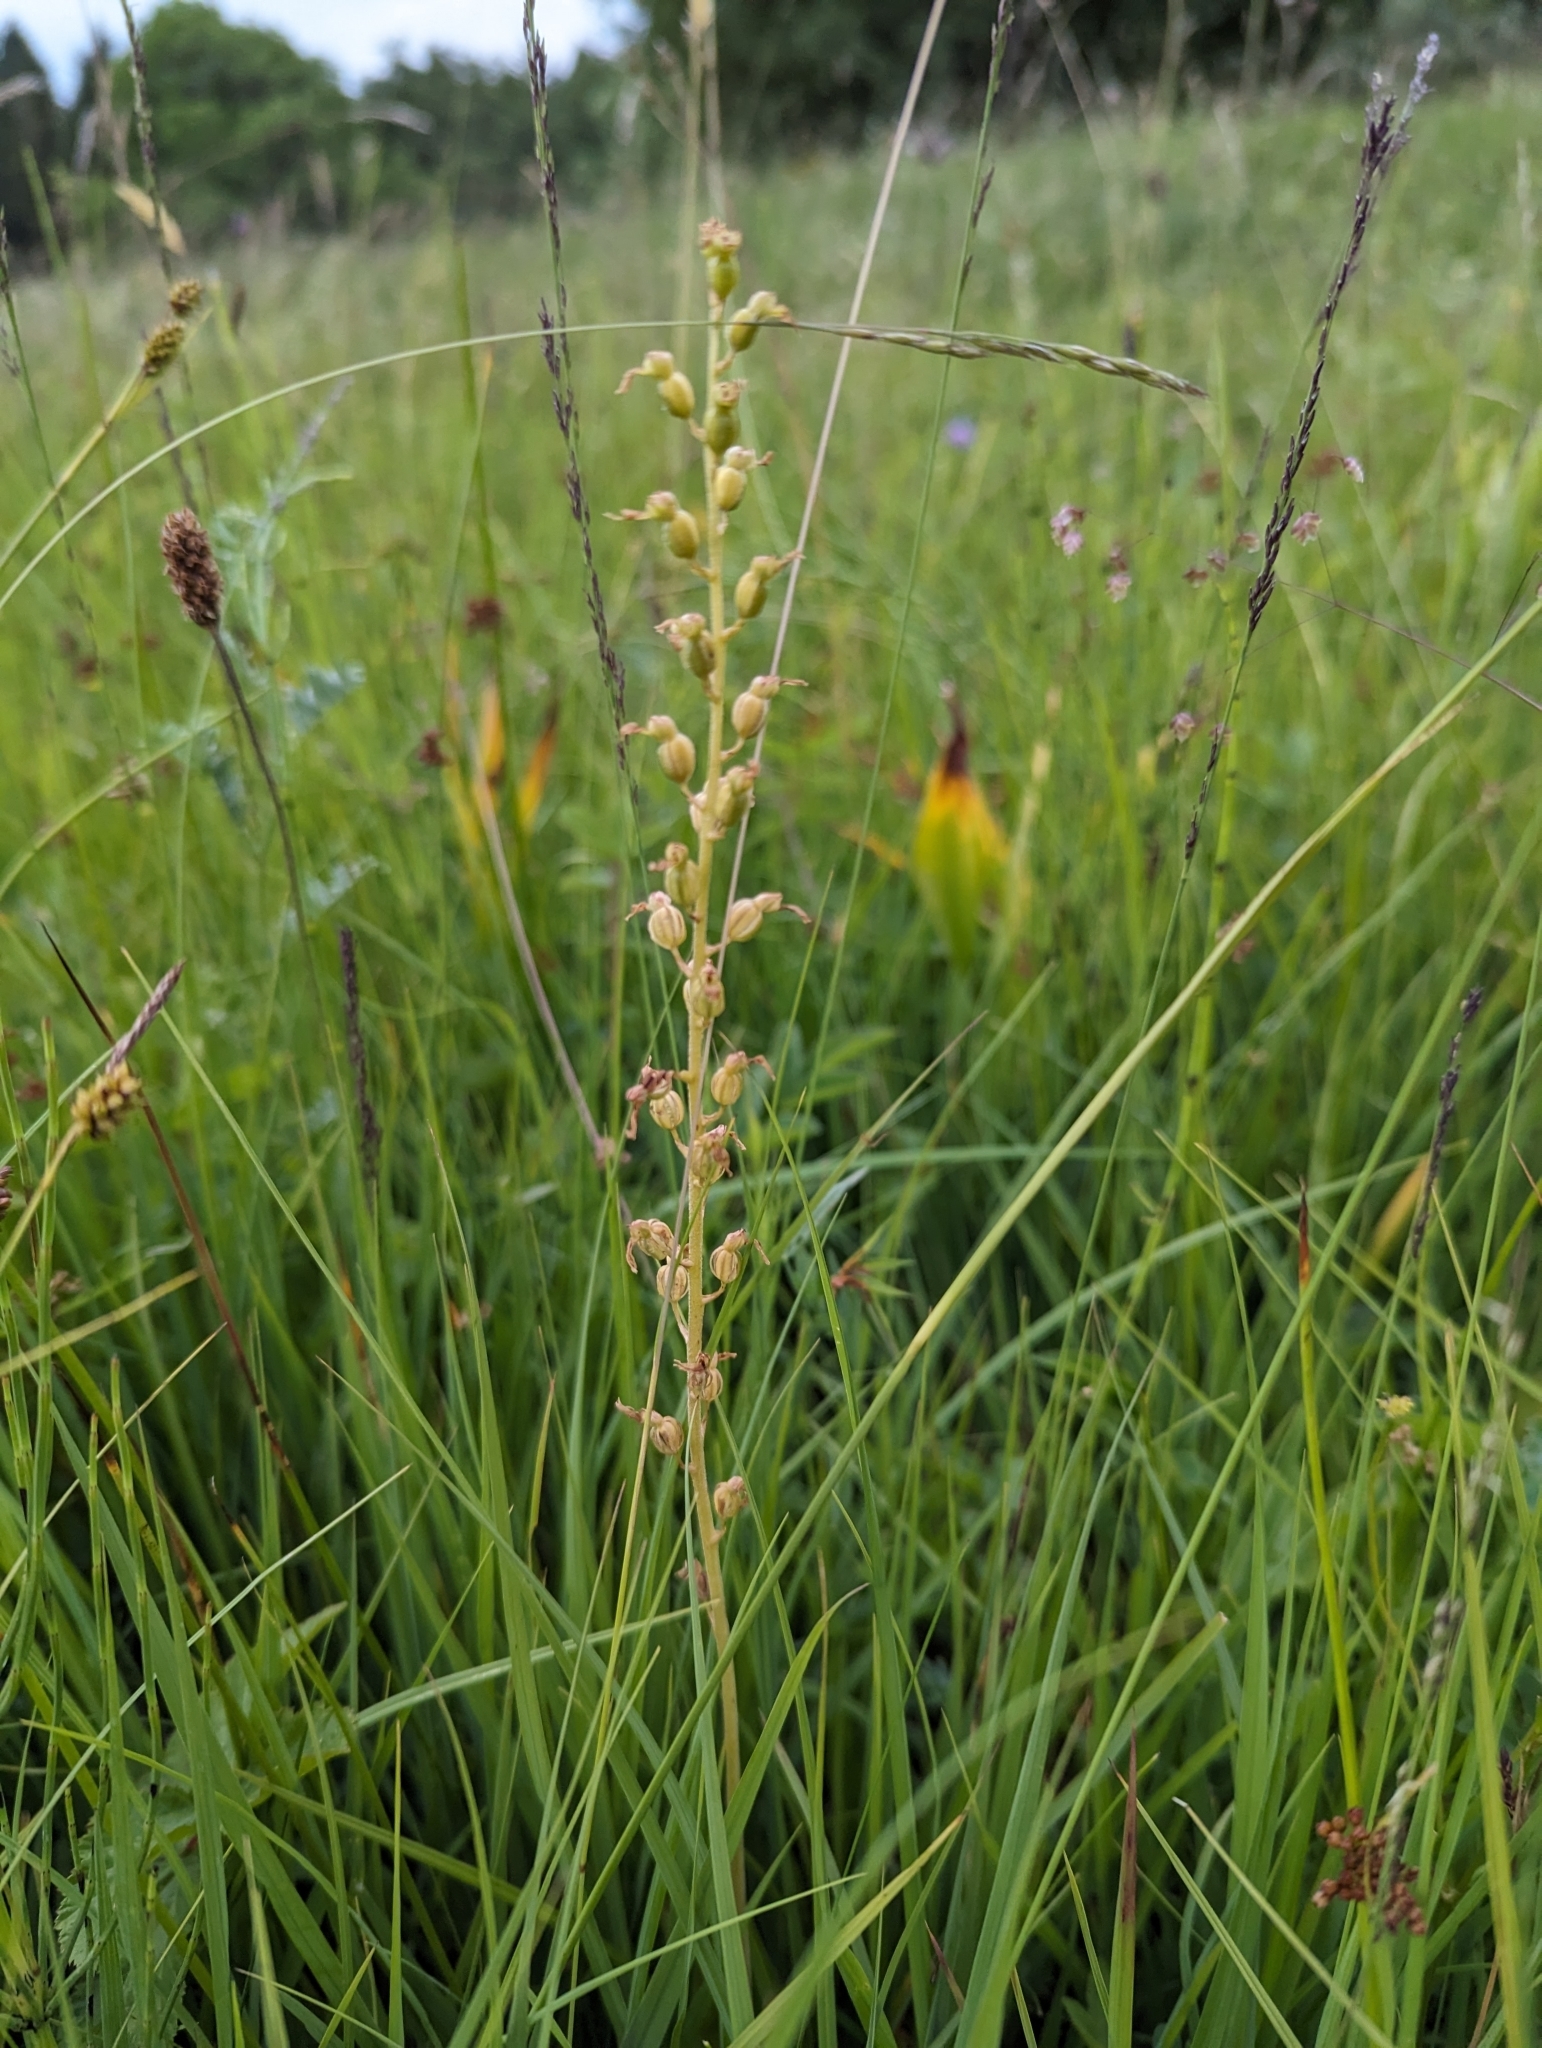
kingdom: Plantae
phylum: Tracheophyta
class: Liliopsida
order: Asparagales
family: Orchidaceae
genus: Neottia
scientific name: Neottia ovata
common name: Common twayblade
